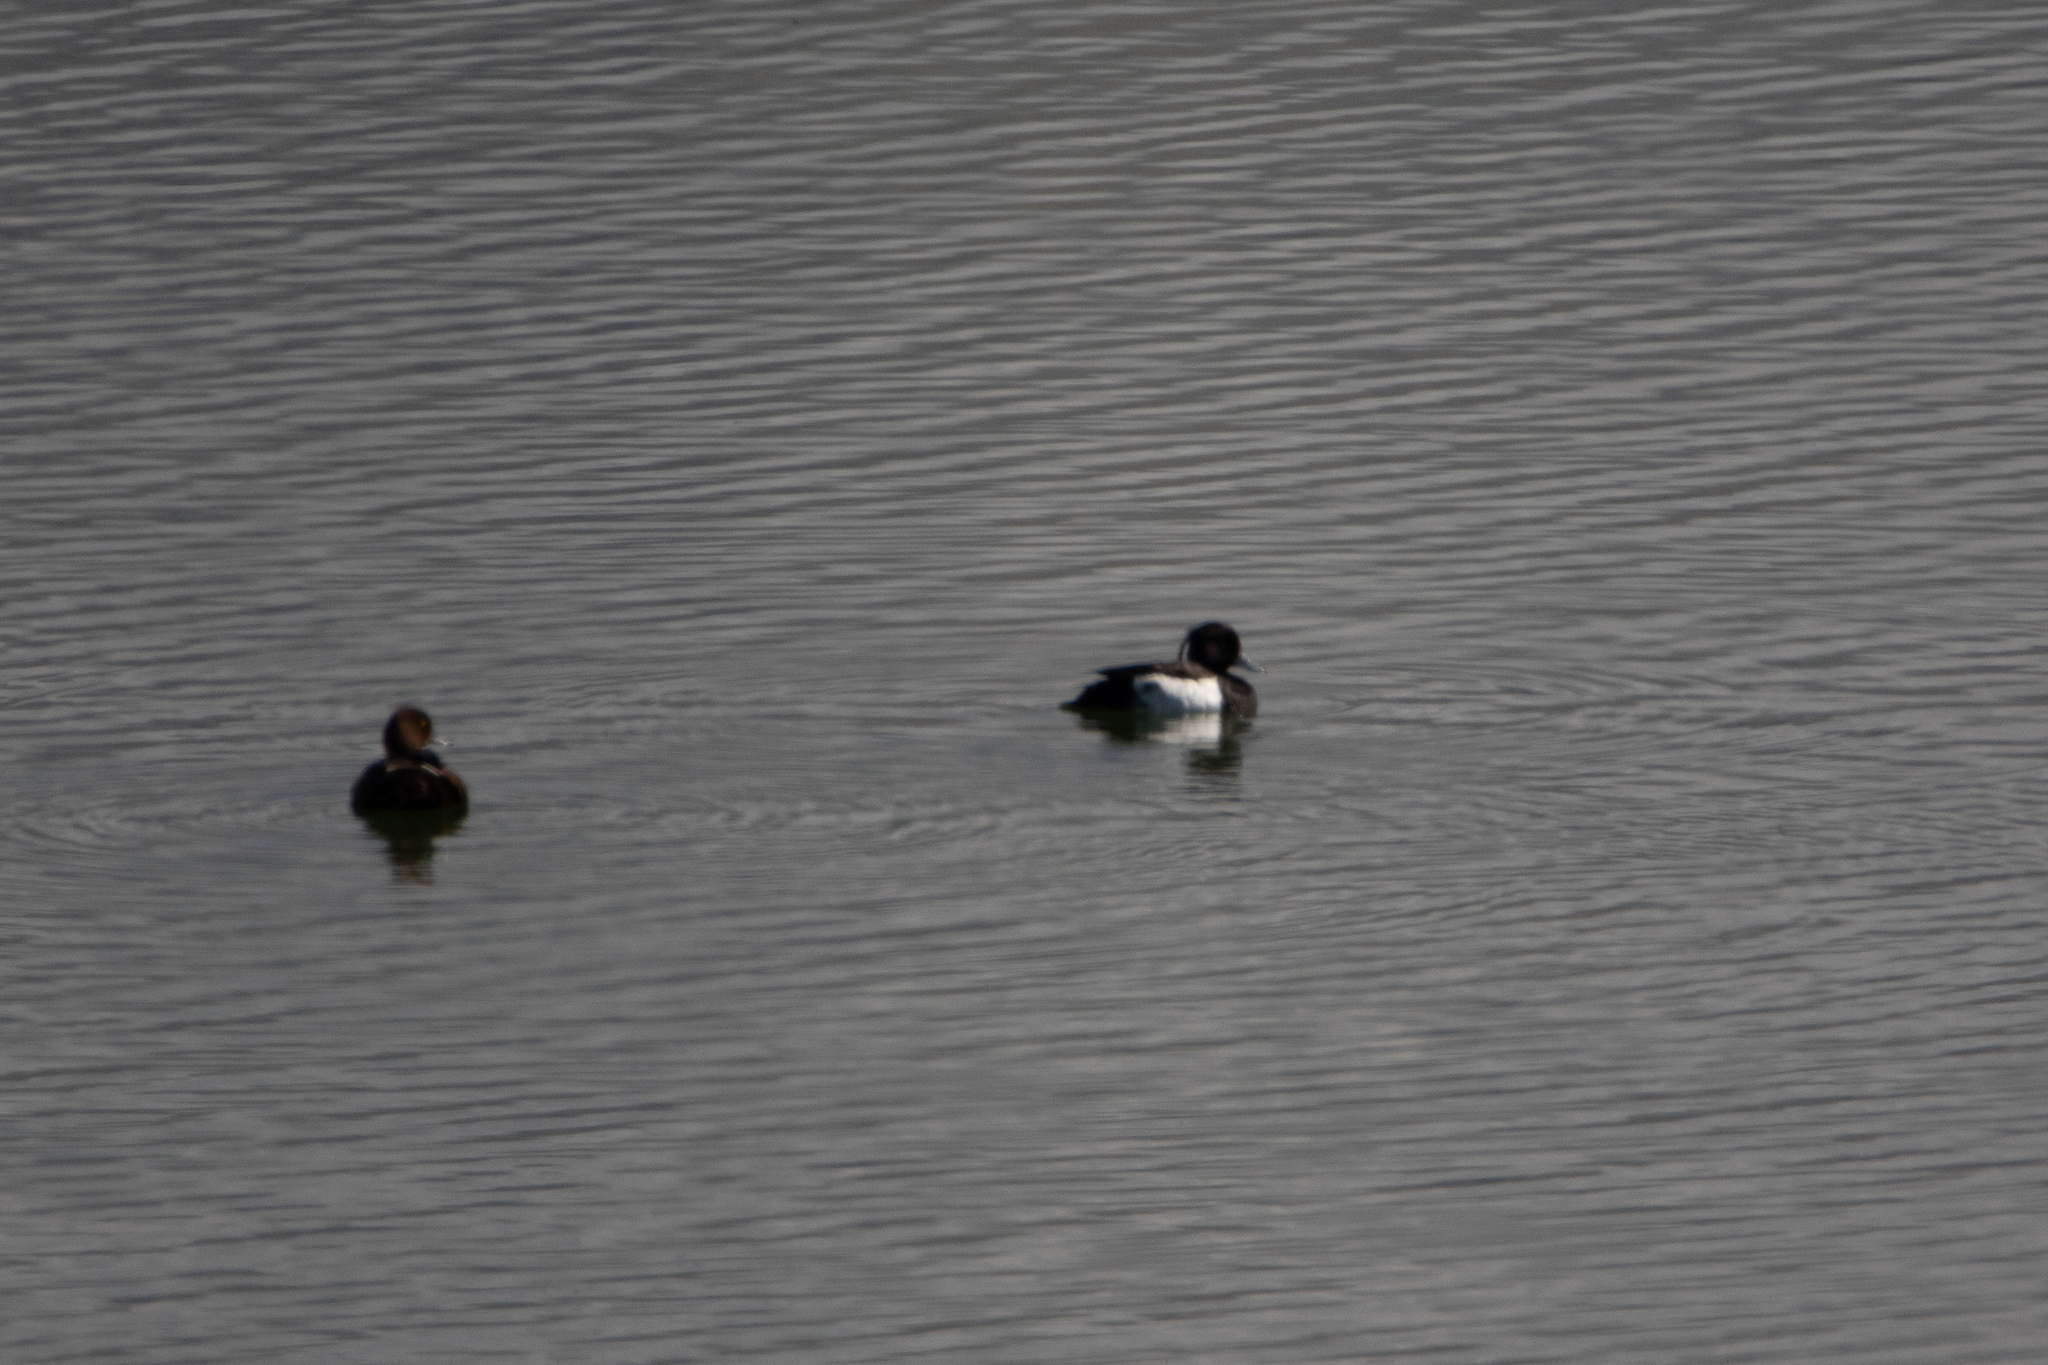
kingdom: Animalia
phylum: Chordata
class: Aves
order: Anseriformes
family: Anatidae
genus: Aythya
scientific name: Aythya fuligula
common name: Tufted duck
